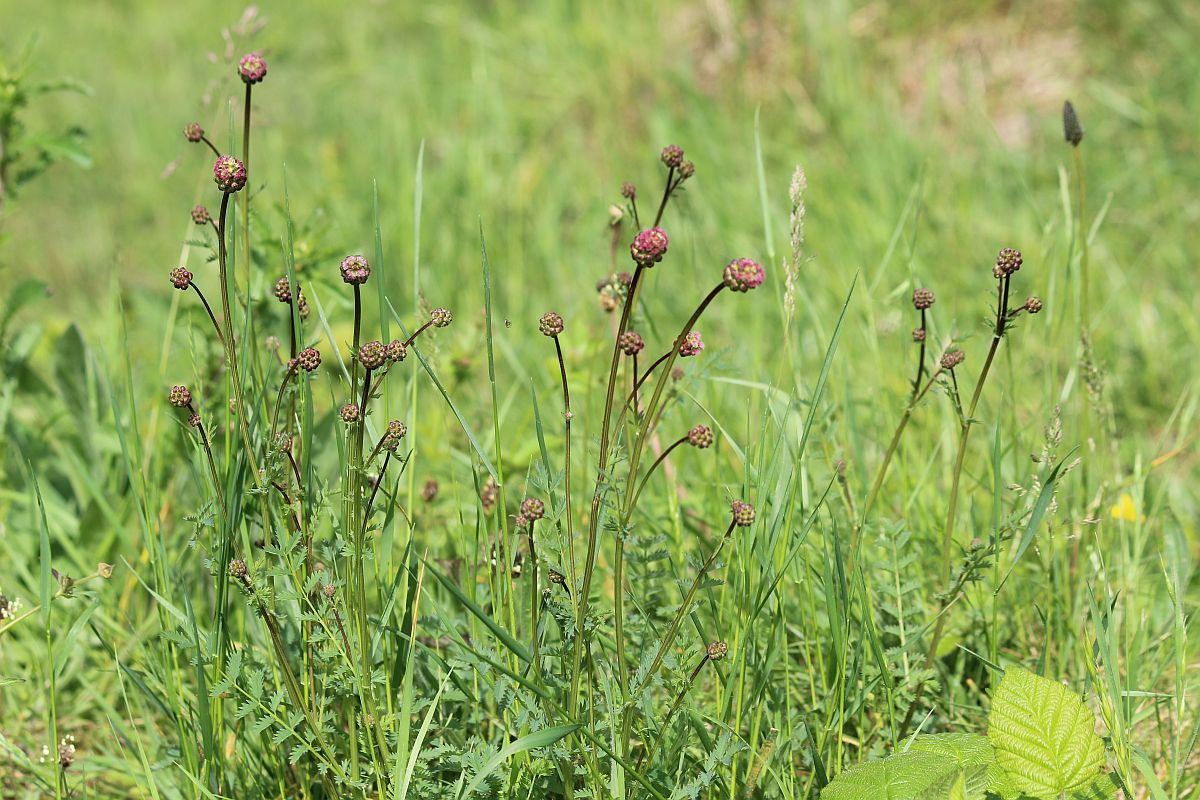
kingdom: Plantae
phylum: Tracheophyta
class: Magnoliopsida
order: Rosales
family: Rosaceae
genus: Poterium
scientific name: Poterium sanguisorba
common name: Salad burnet
